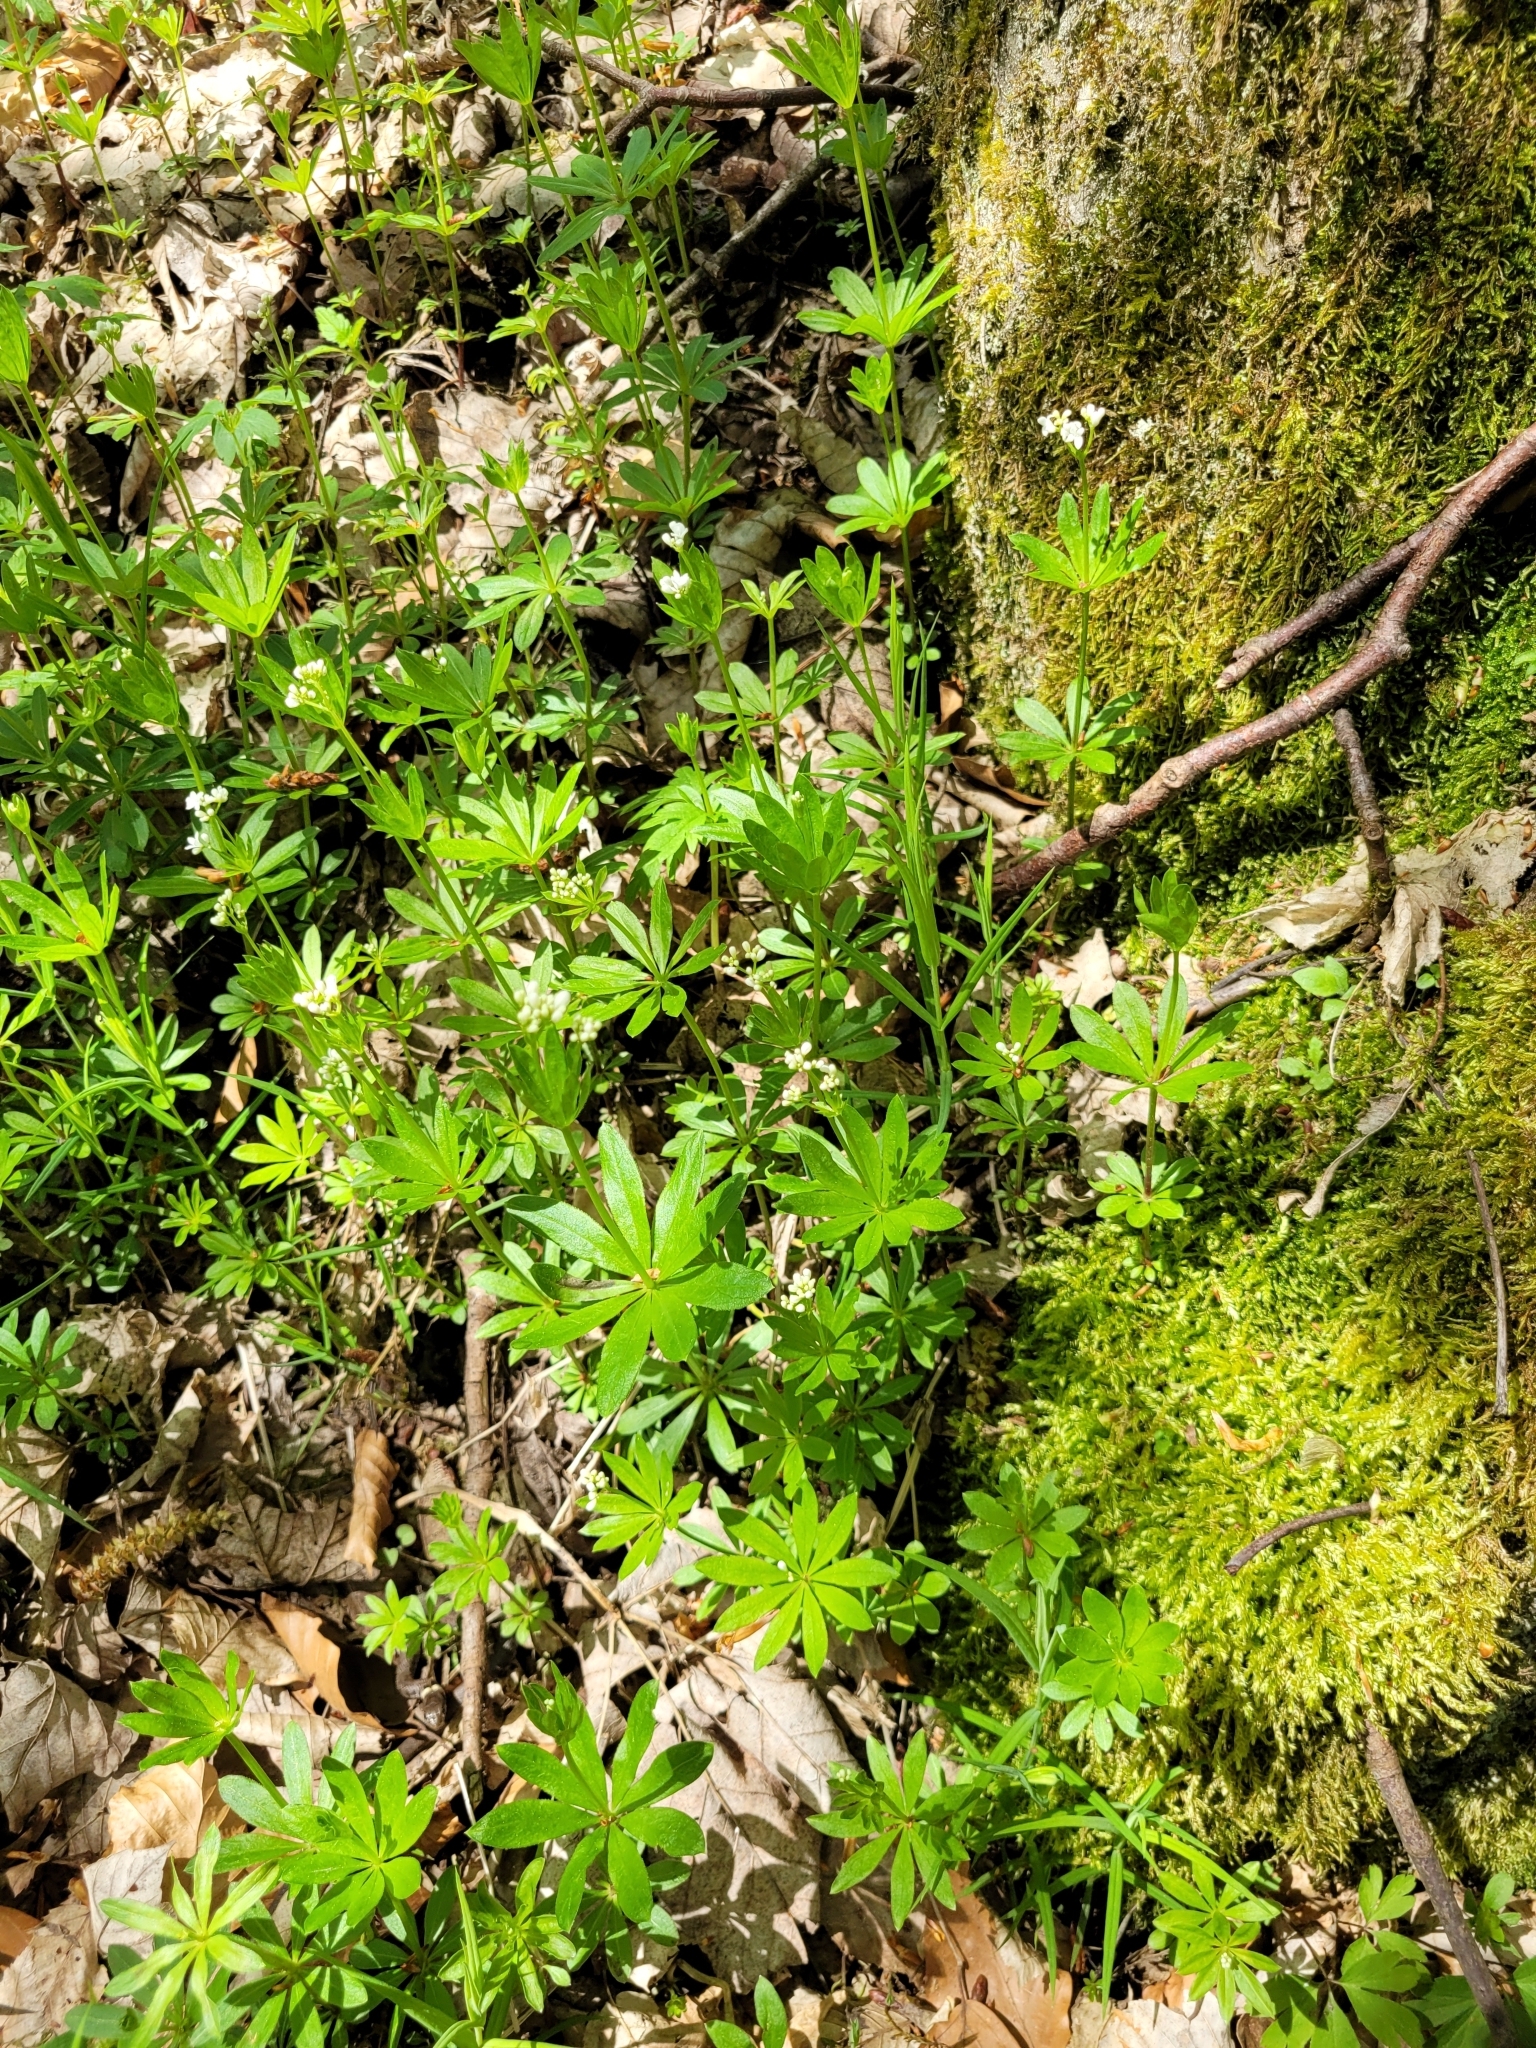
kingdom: Plantae
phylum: Tracheophyta
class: Magnoliopsida
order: Gentianales
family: Rubiaceae
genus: Galium
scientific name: Galium odoratum
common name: Sweet woodruff
